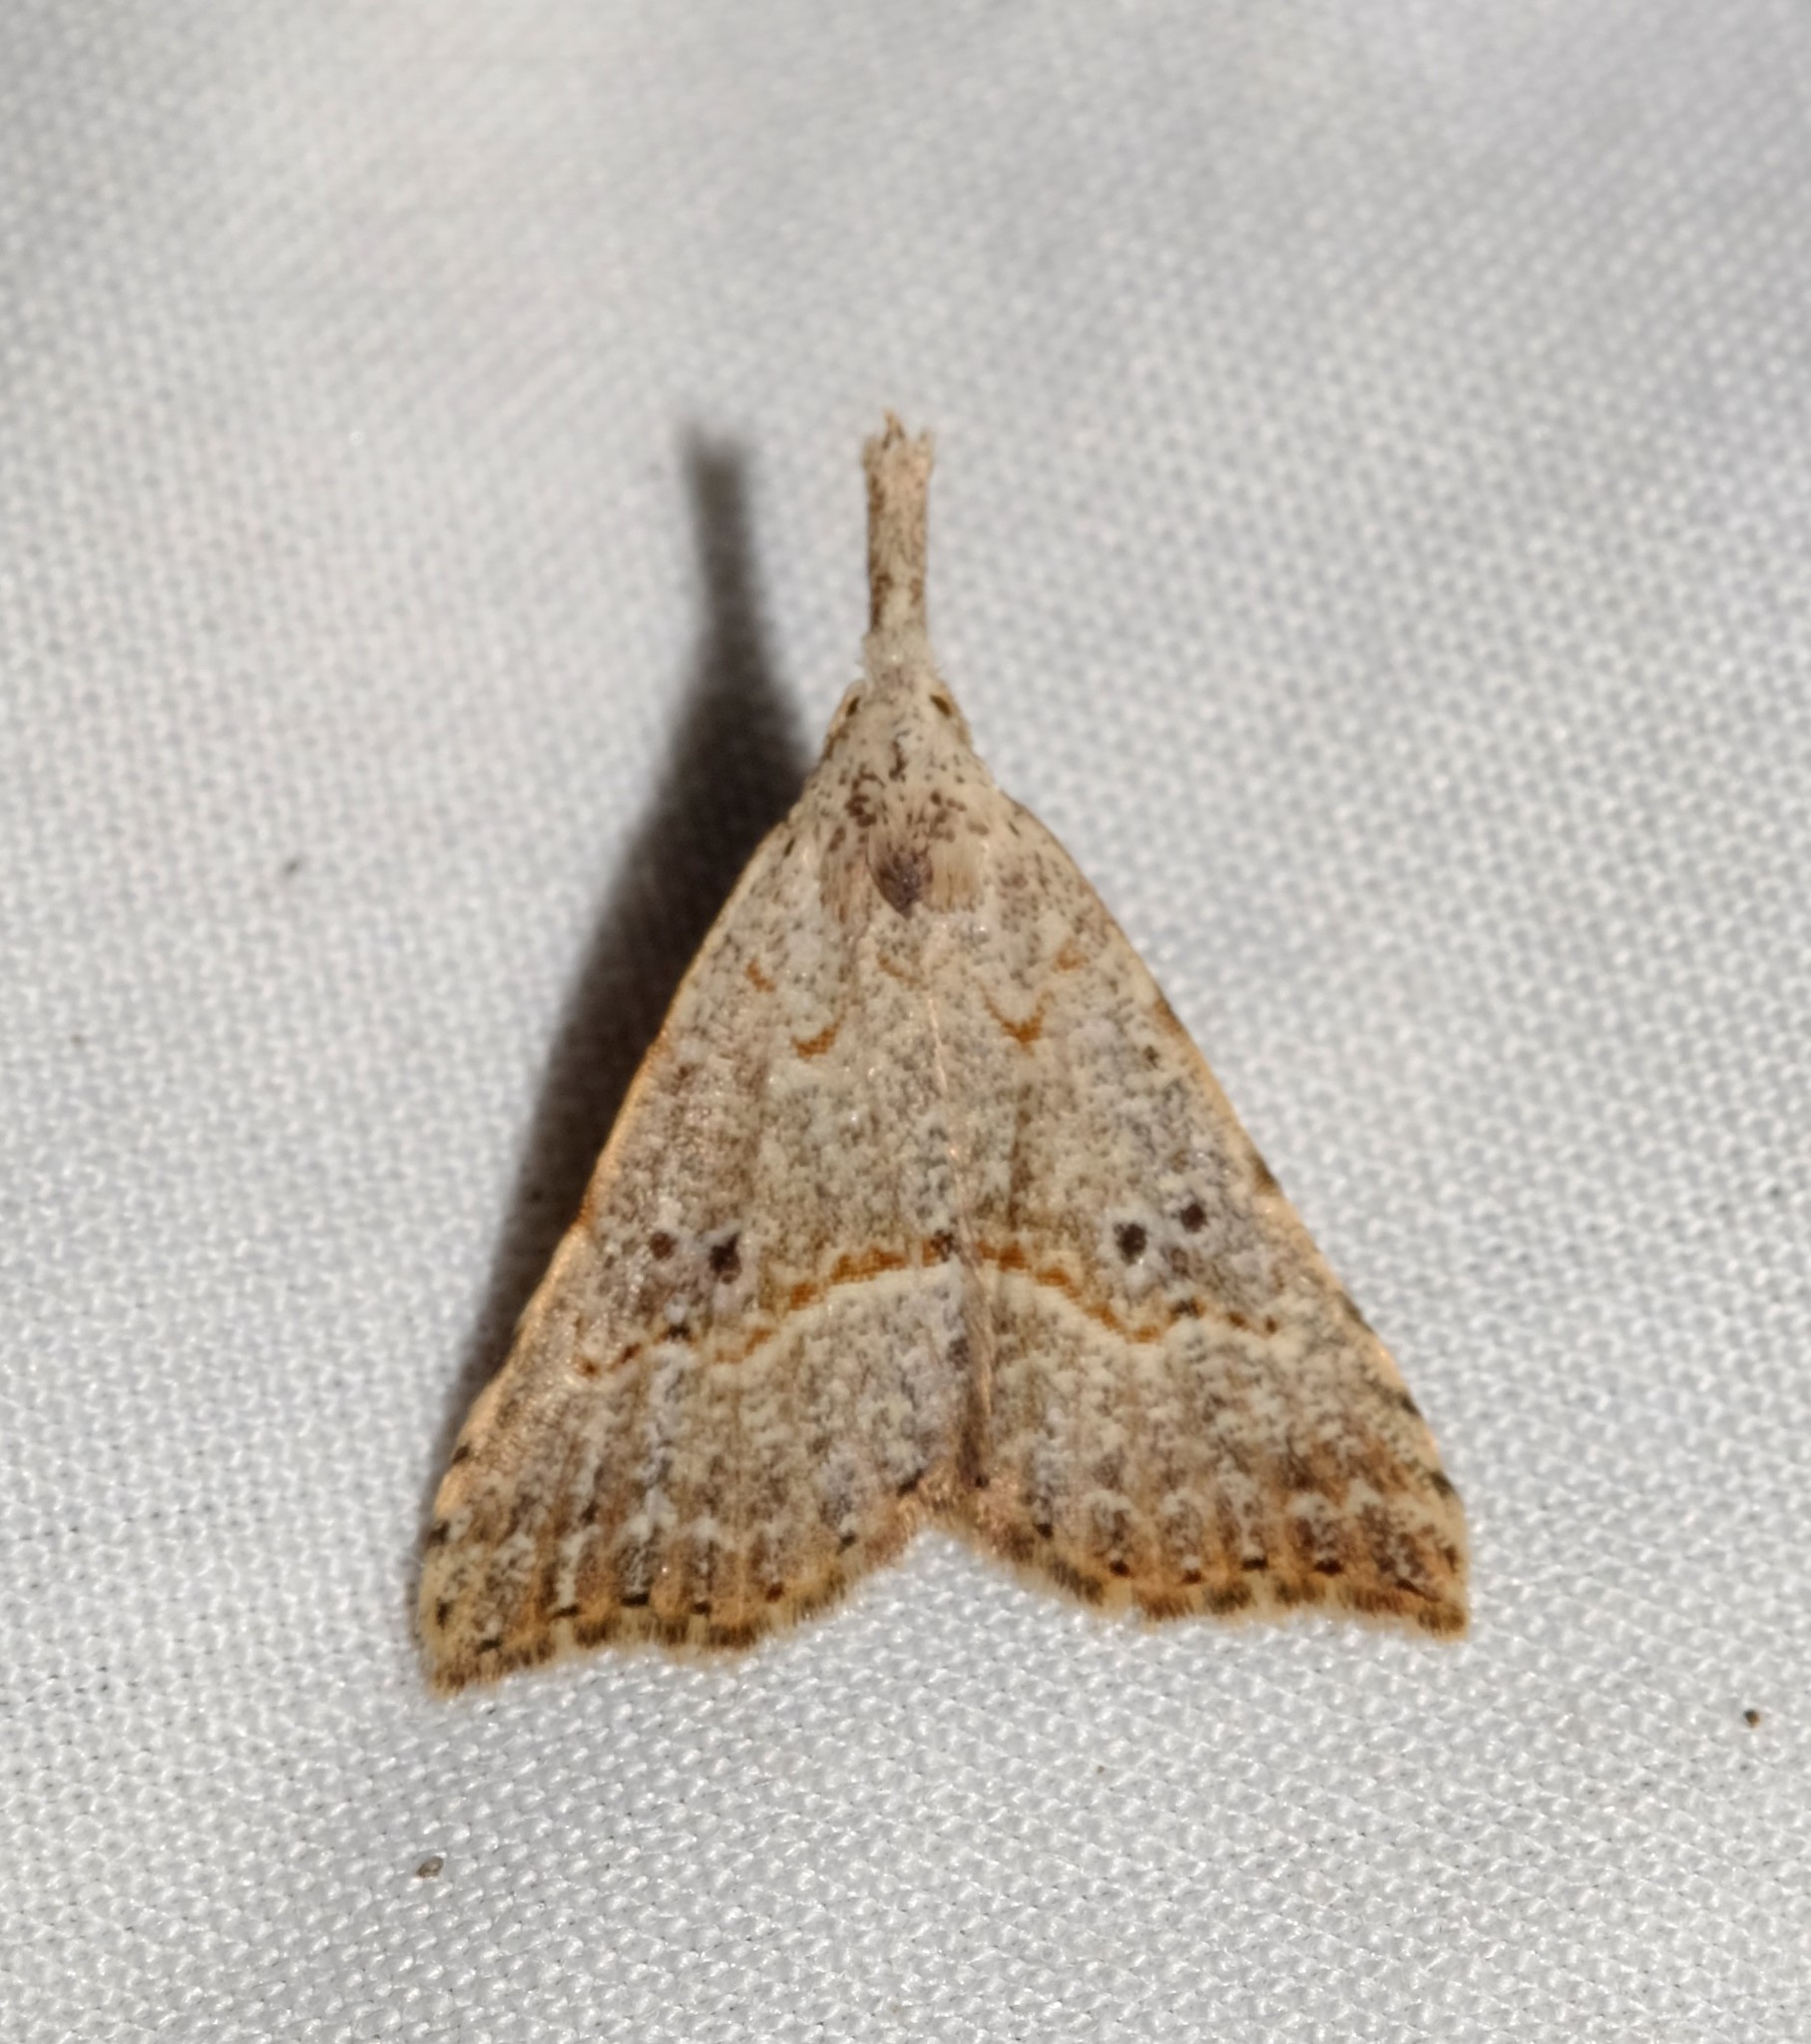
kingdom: Animalia
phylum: Arthropoda
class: Insecta
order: Lepidoptera
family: Erebidae
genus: Trigonistis
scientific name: Trigonistis asthenopa
